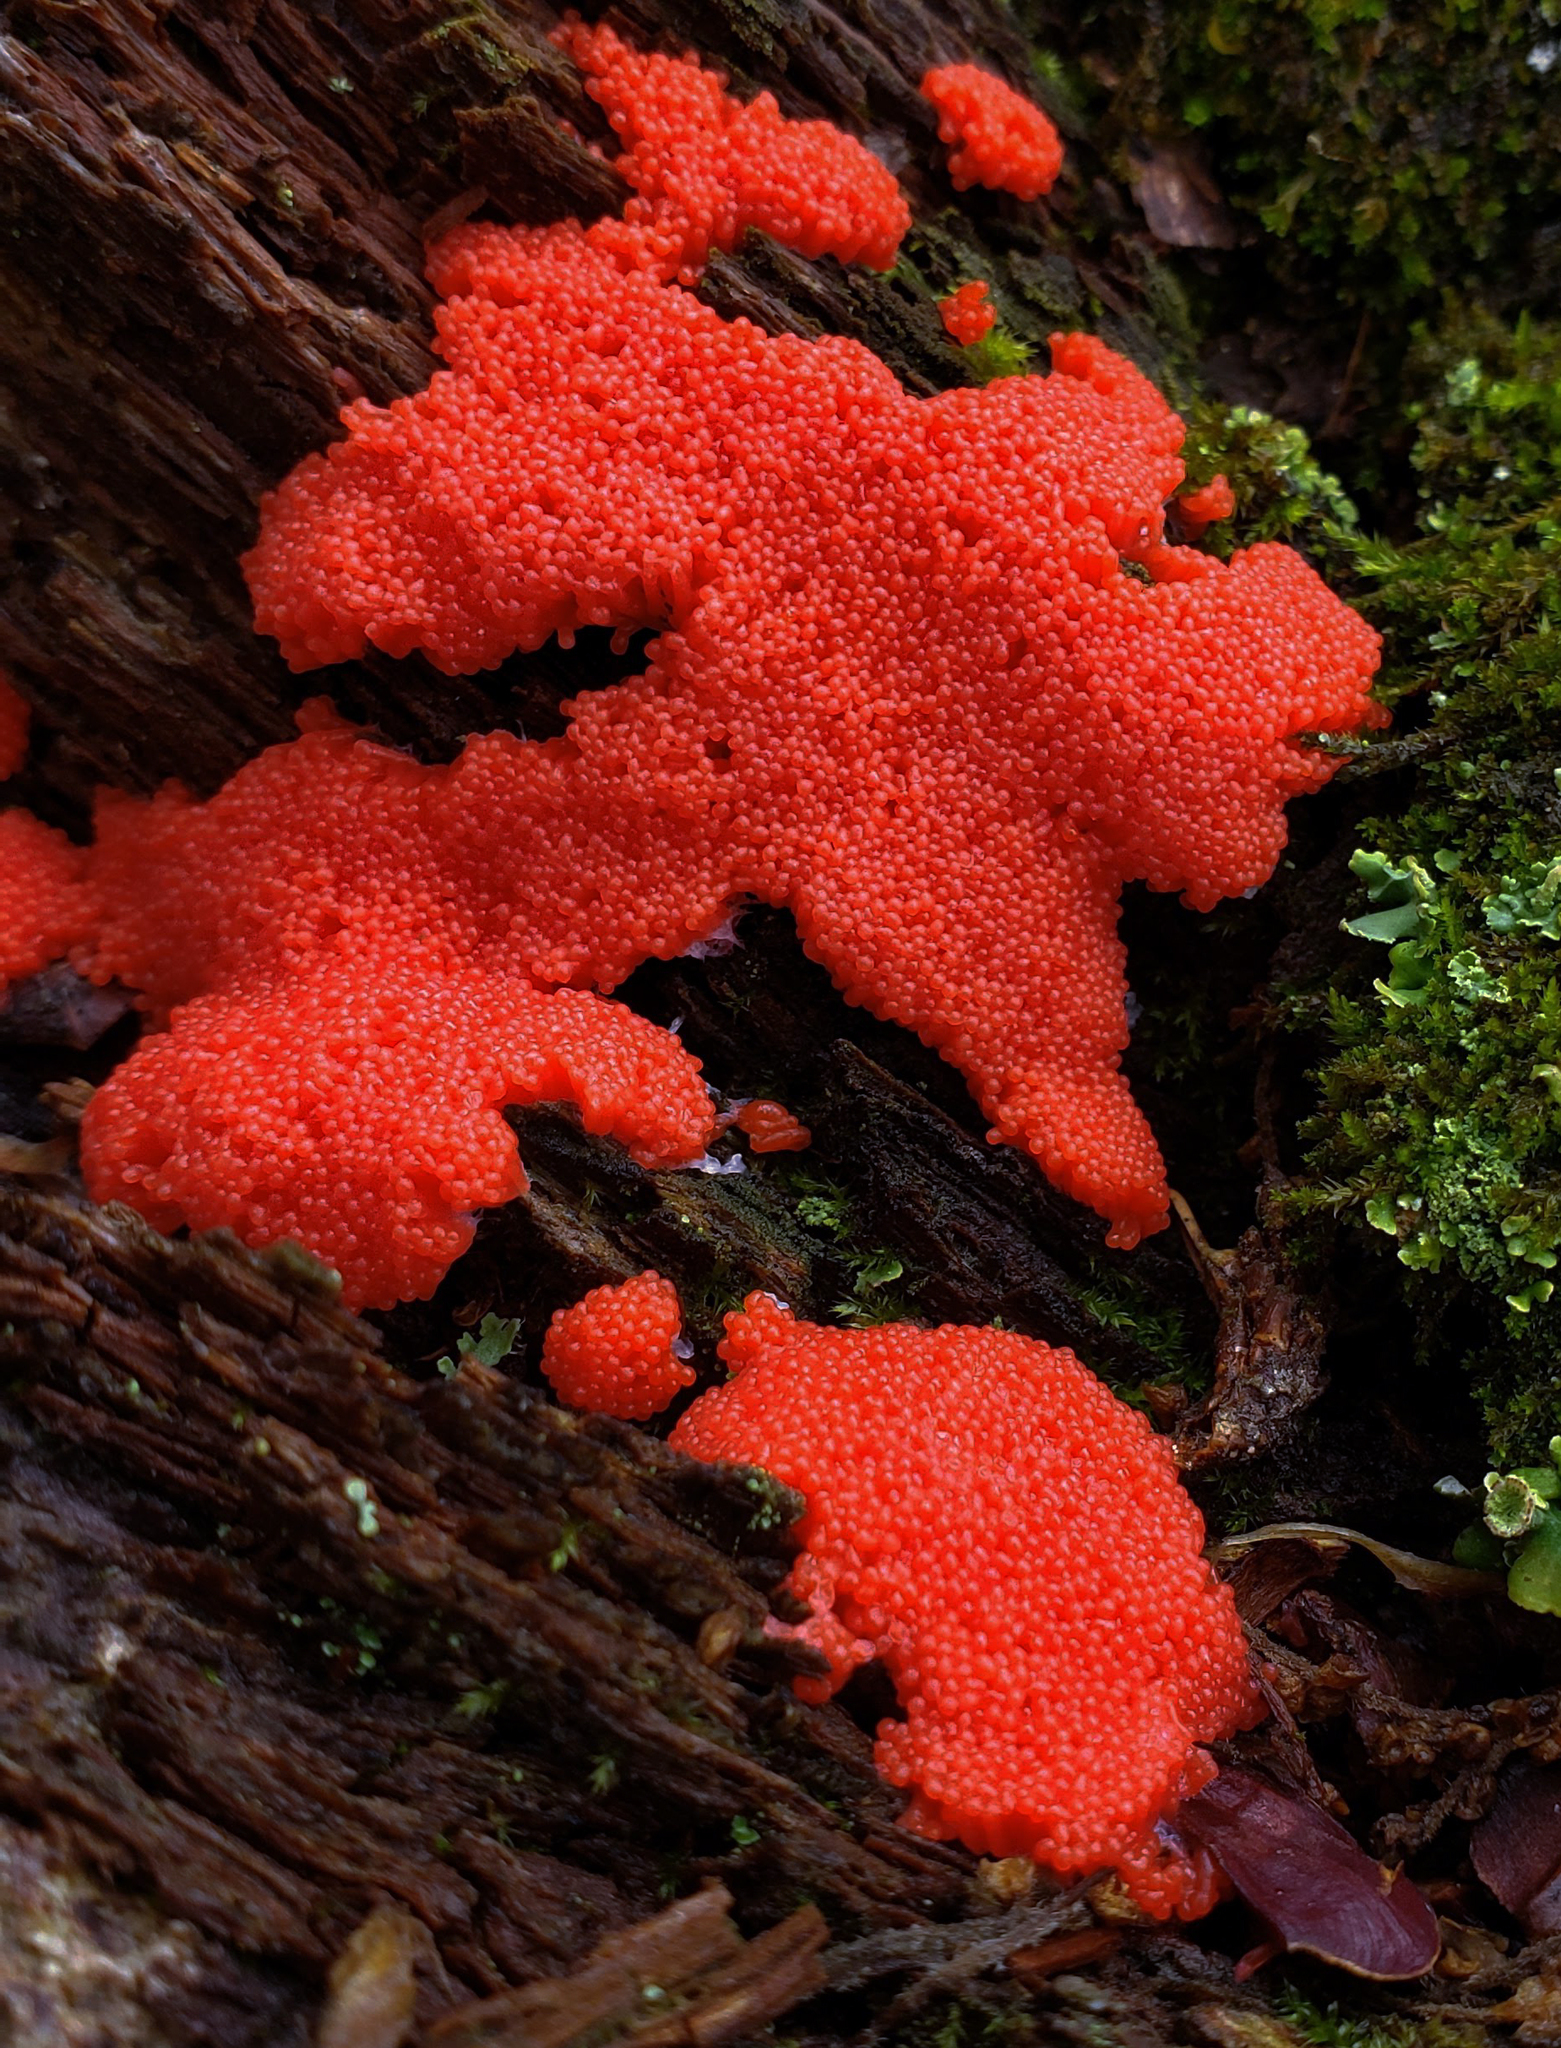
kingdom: Protozoa
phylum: Mycetozoa
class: Myxomycetes
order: Cribrariales
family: Tubiferaceae
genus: Tubifera
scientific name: Tubifera ferruginosa
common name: Red raspberry slime mold
